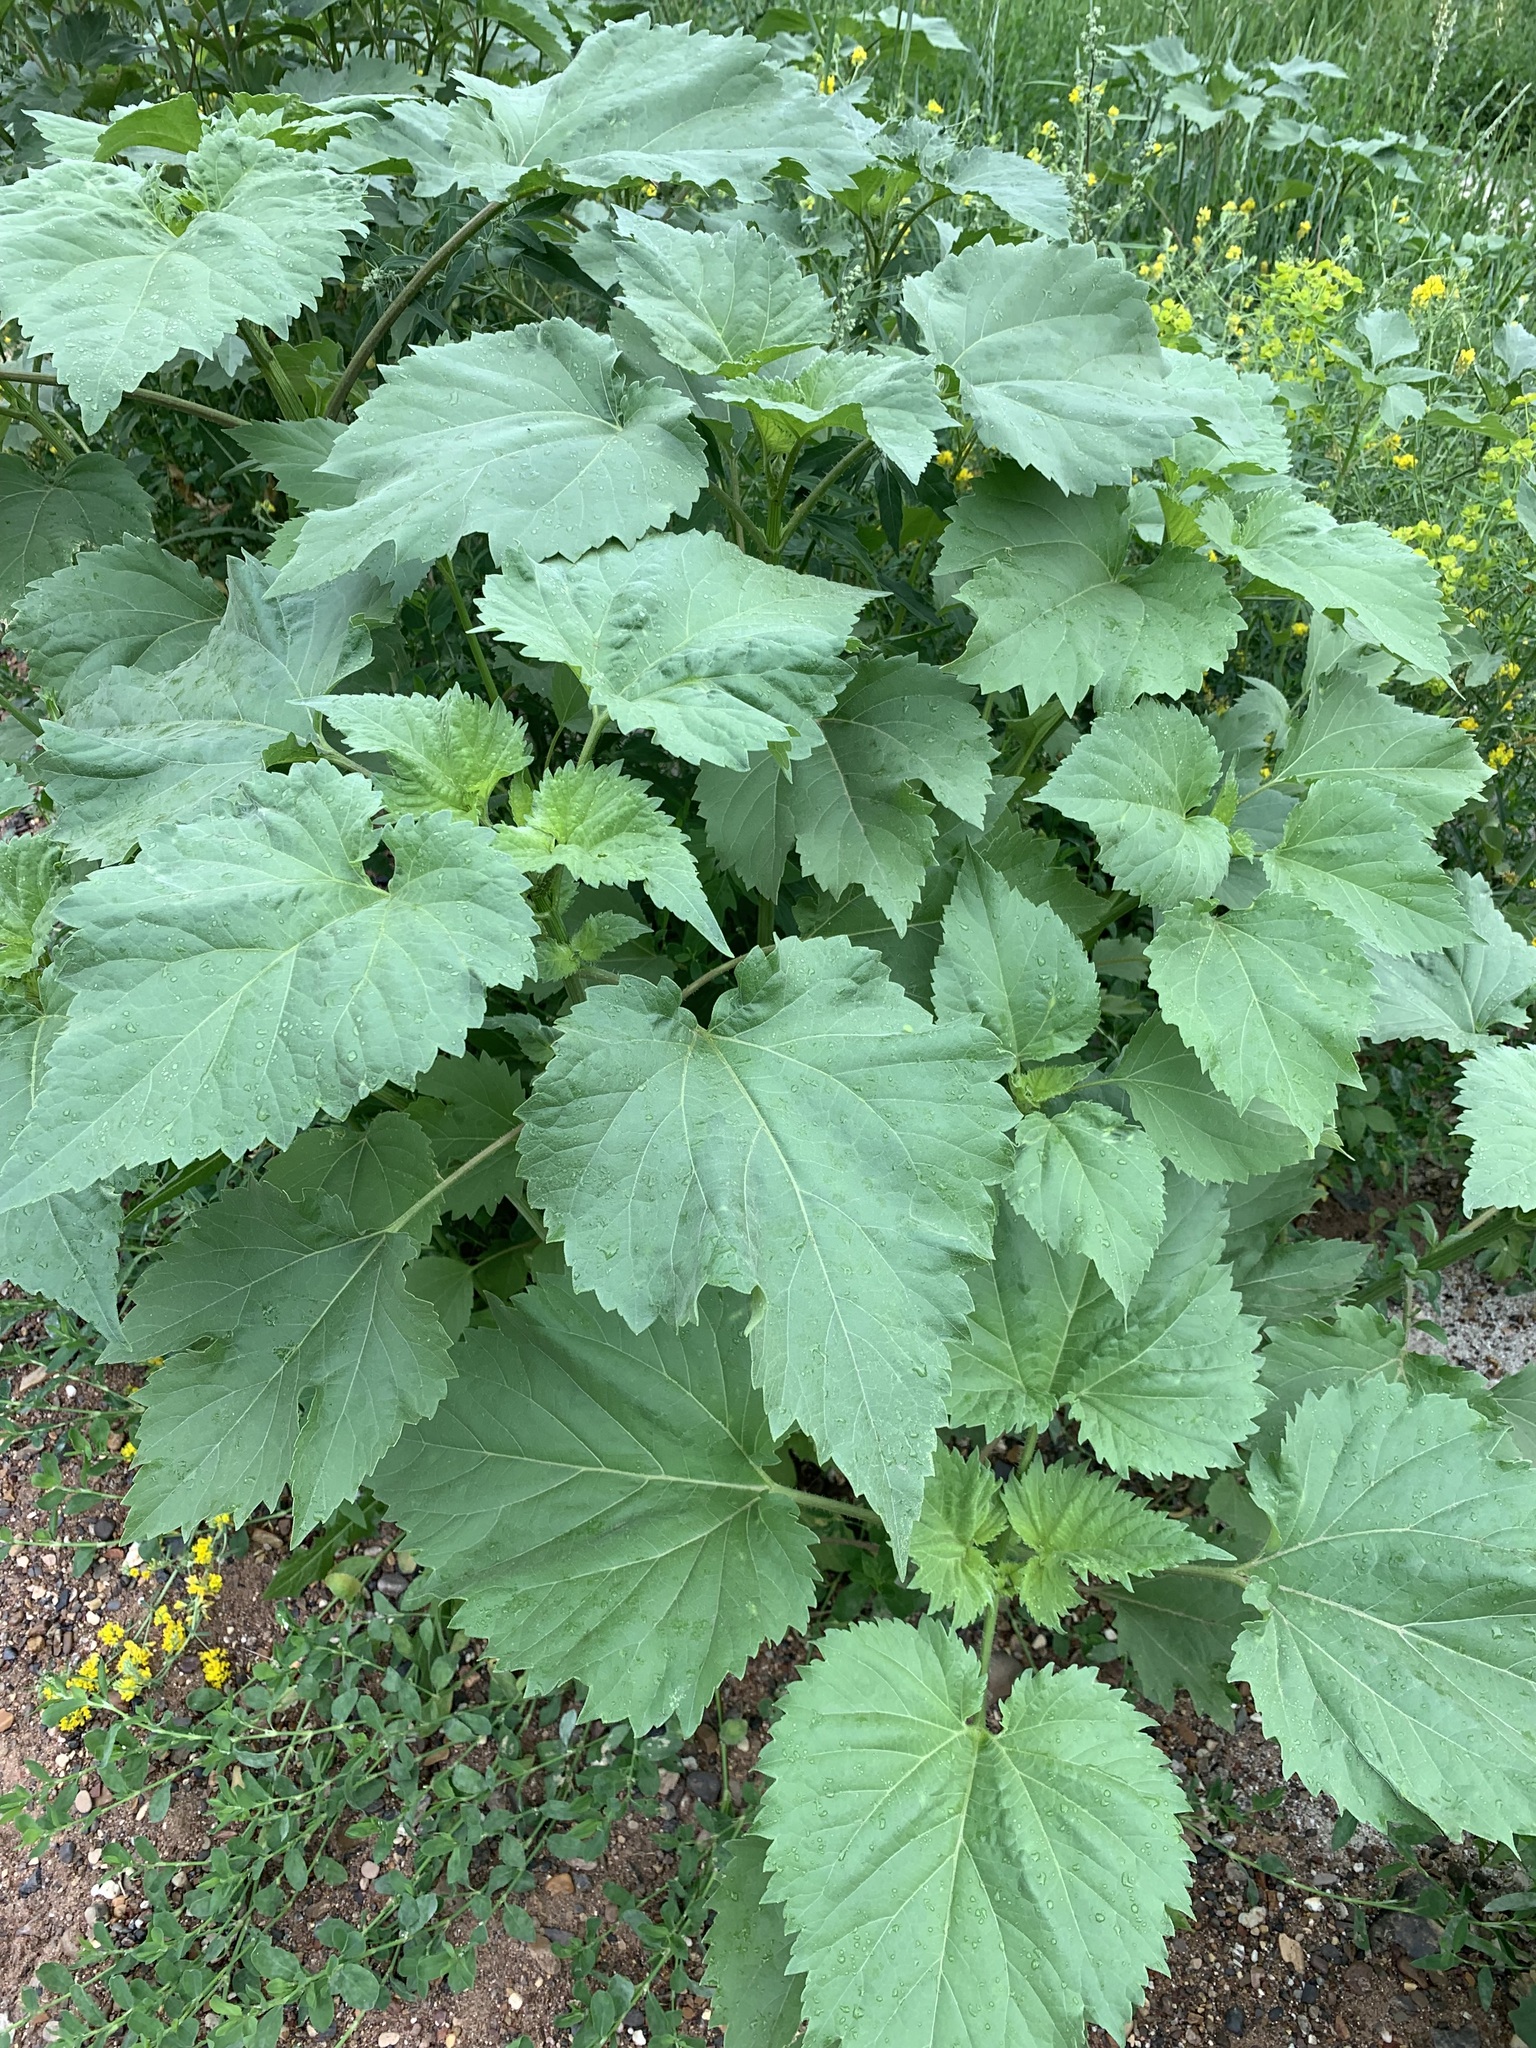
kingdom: Plantae
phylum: Tracheophyta
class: Magnoliopsida
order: Asterales
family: Asteraceae
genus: Cyclachaena
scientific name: Cyclachaena xanthiifolia
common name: Giant sumpweed
